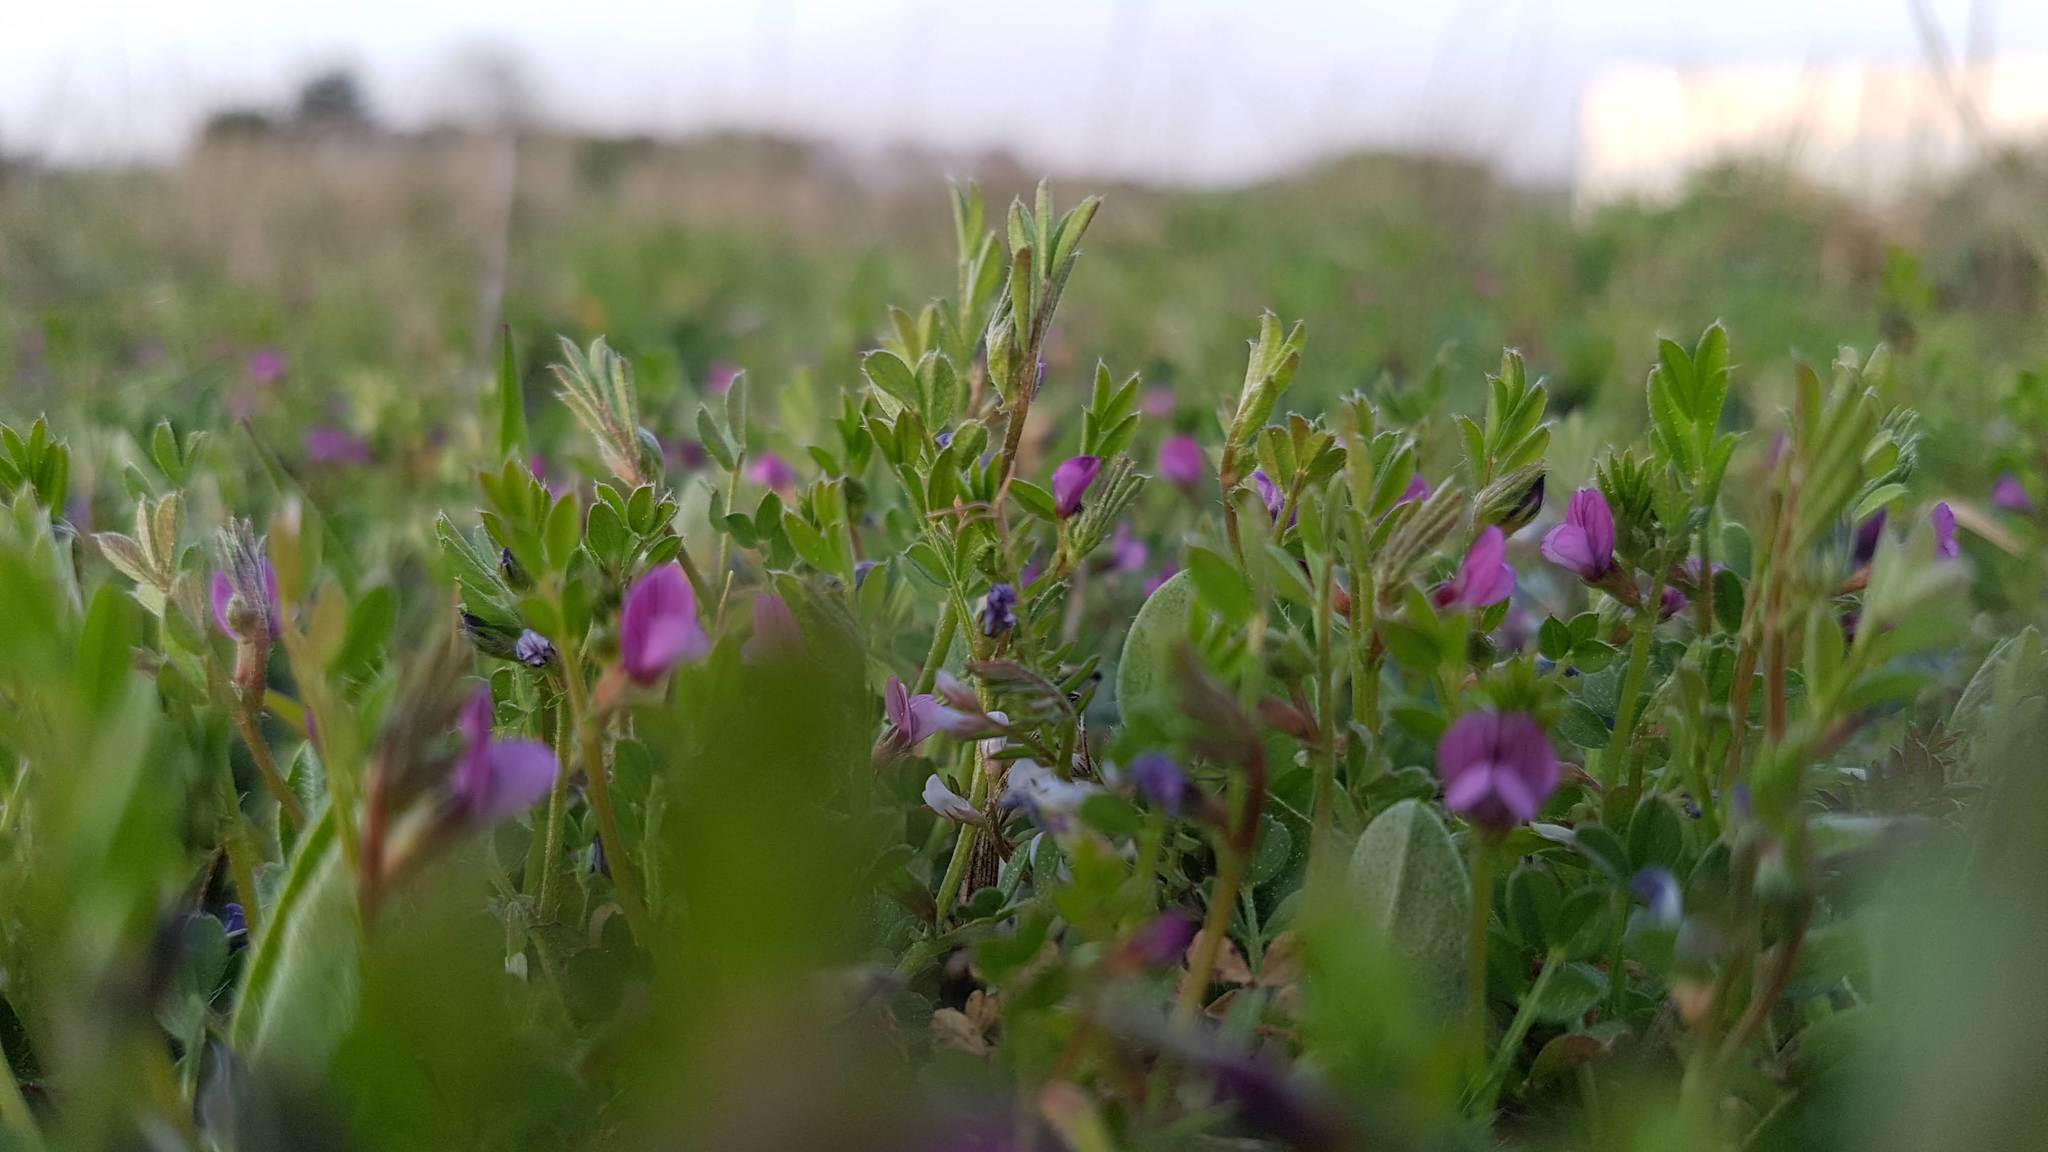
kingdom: Plantae
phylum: Tracheophyta
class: Magnoliopsida
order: Fabales
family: Fabaceae
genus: Vicia
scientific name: Vicia lathyroides
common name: Spring vetch
